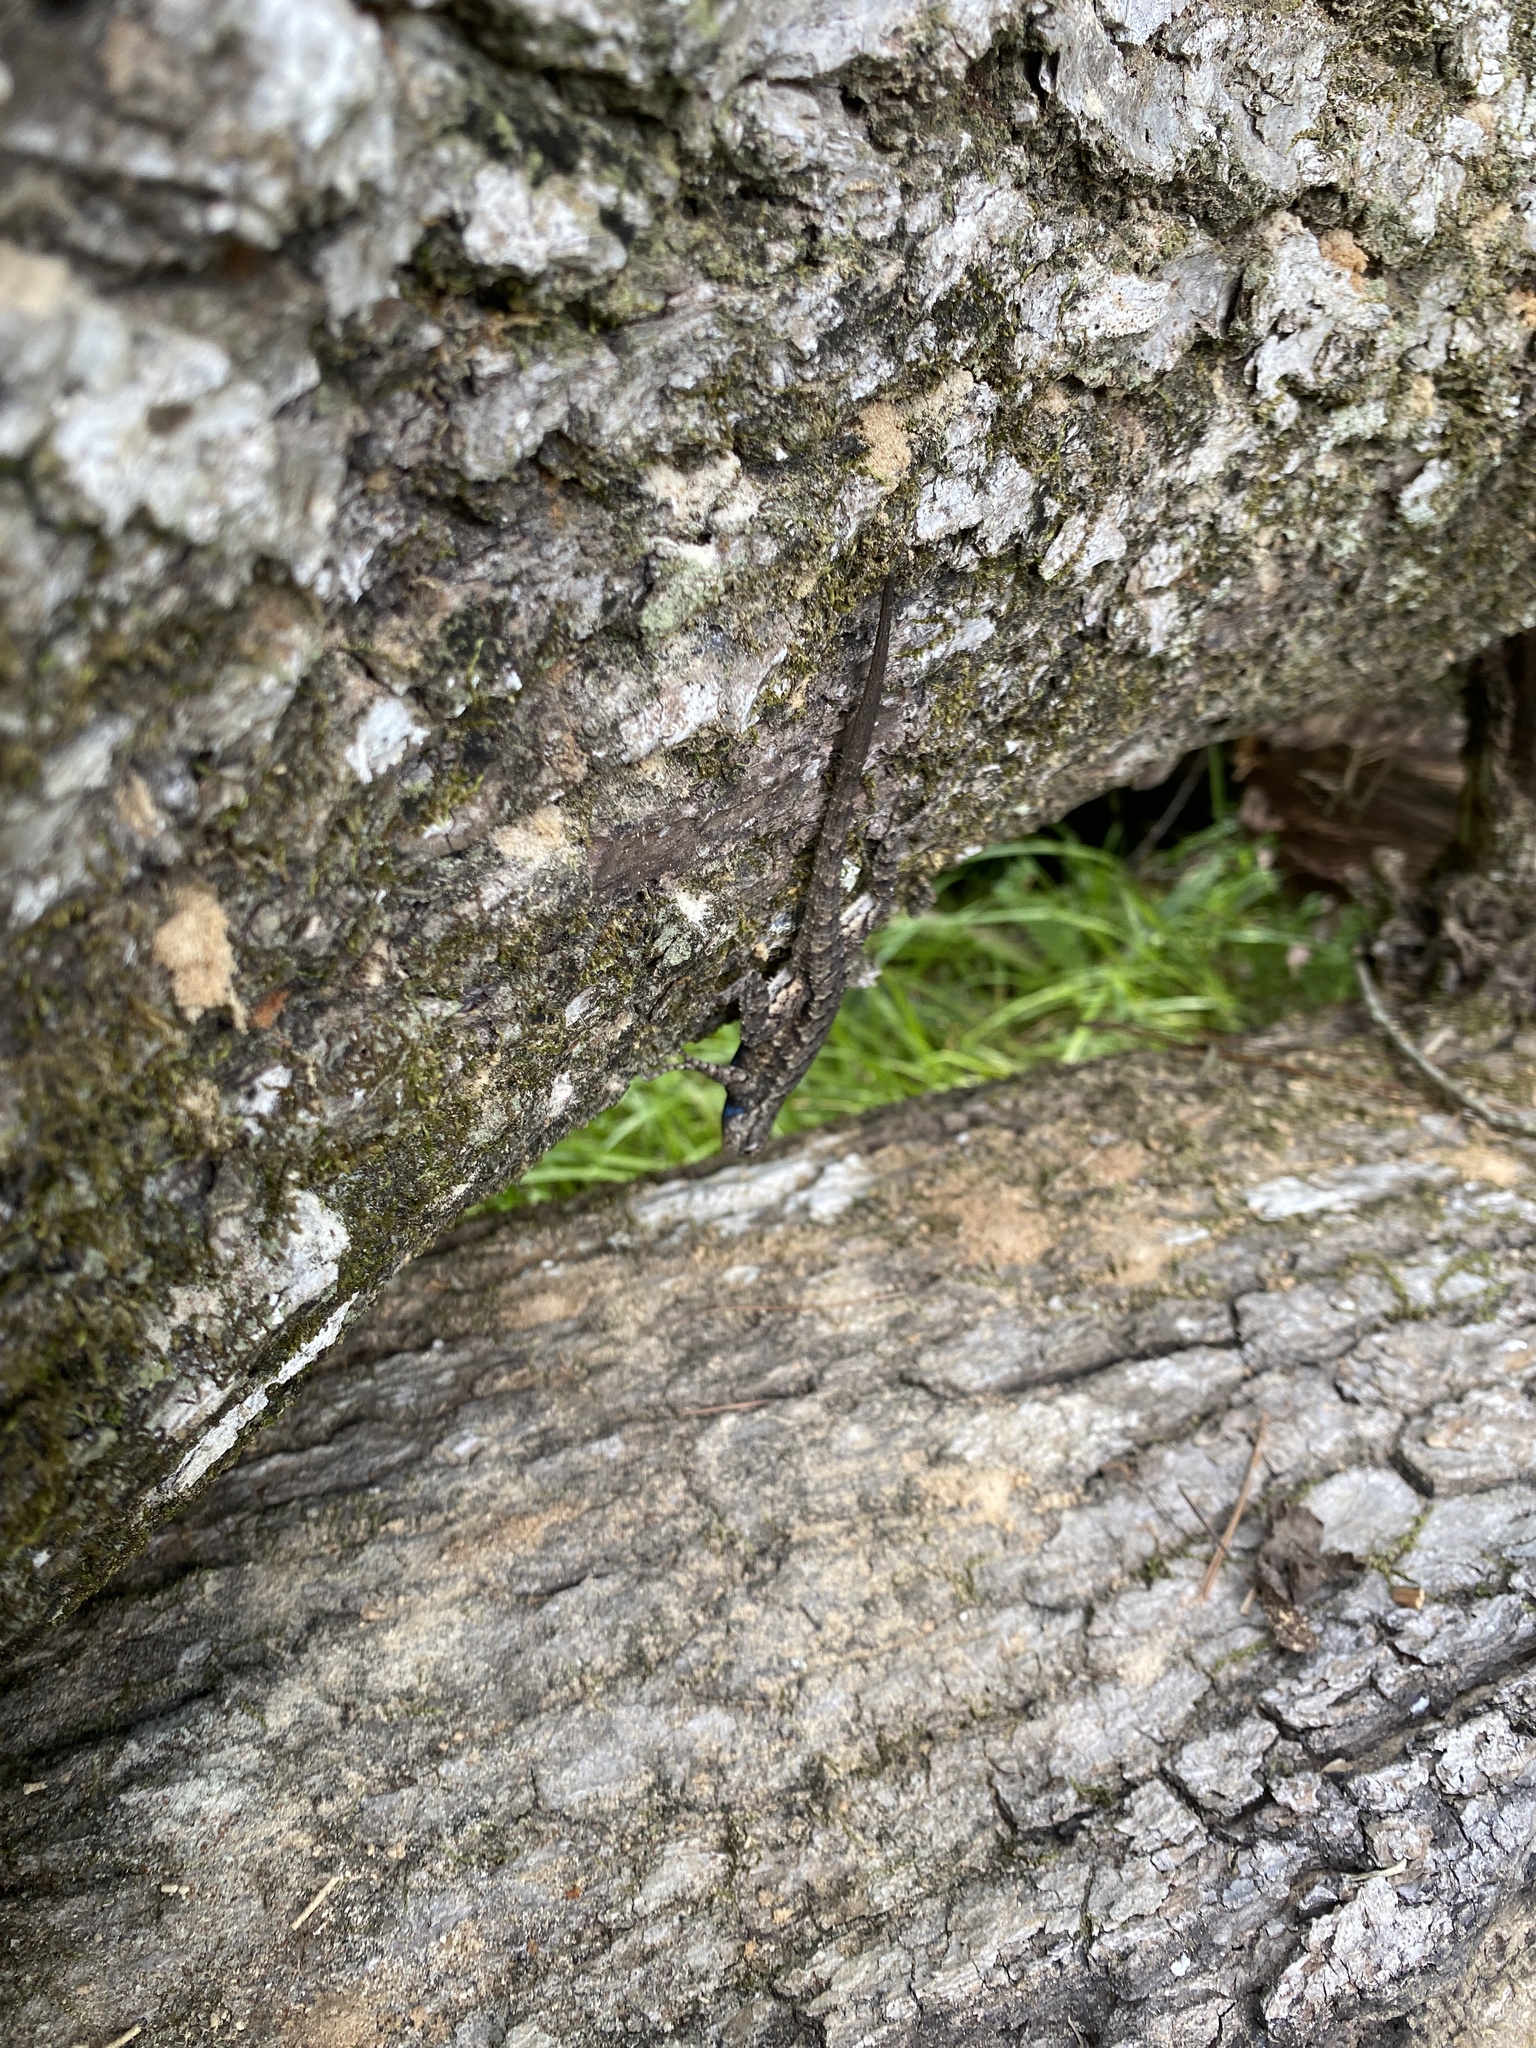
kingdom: Animalia
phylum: Chordata
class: Squamata
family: Phrynosomatidae
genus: Sceloporus
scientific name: Sceloporus consobrinus
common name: Southern prairie lizard
